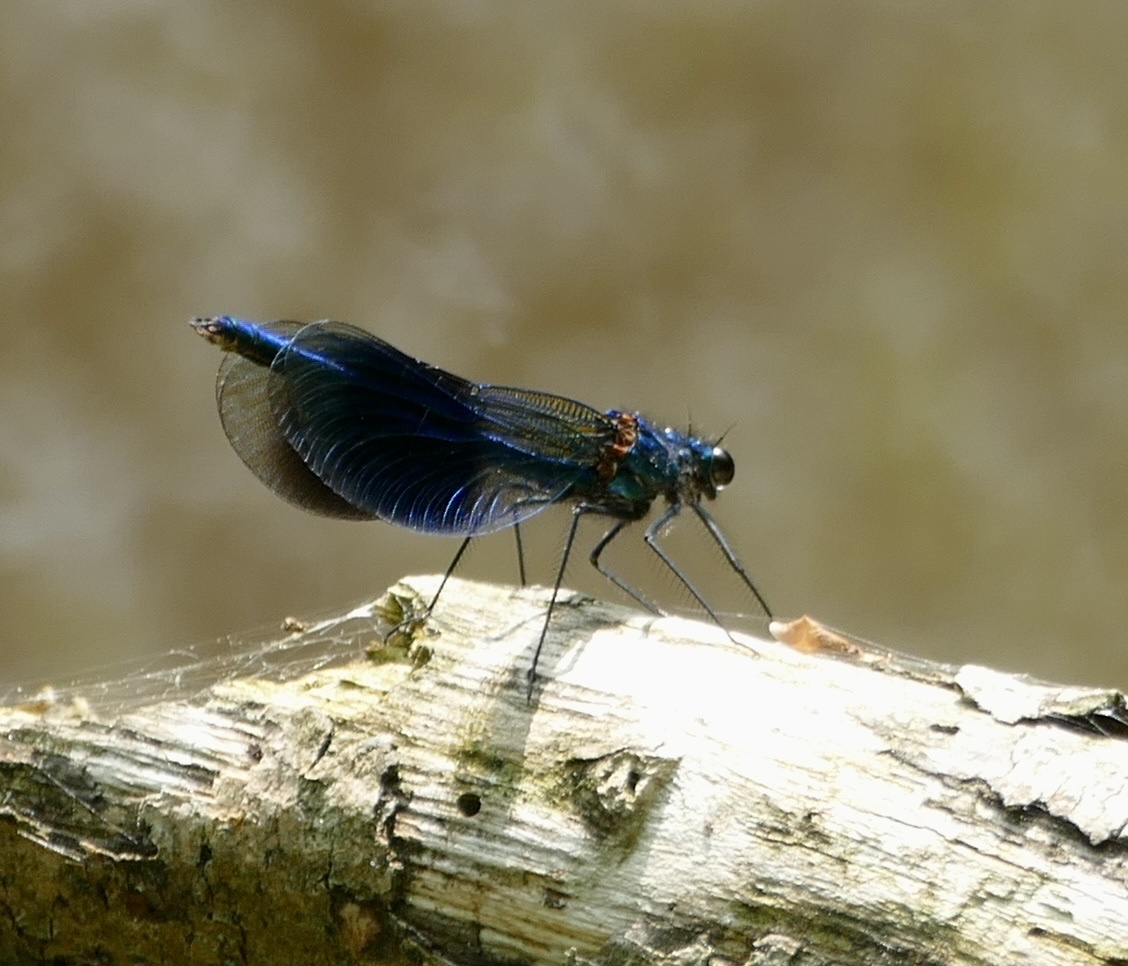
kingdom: Animalia
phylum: Arthropoda
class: Insecta
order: Odonata
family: Calopterygidae
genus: Calopteryx
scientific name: Calopteryx splendens
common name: Banded demoiselle
